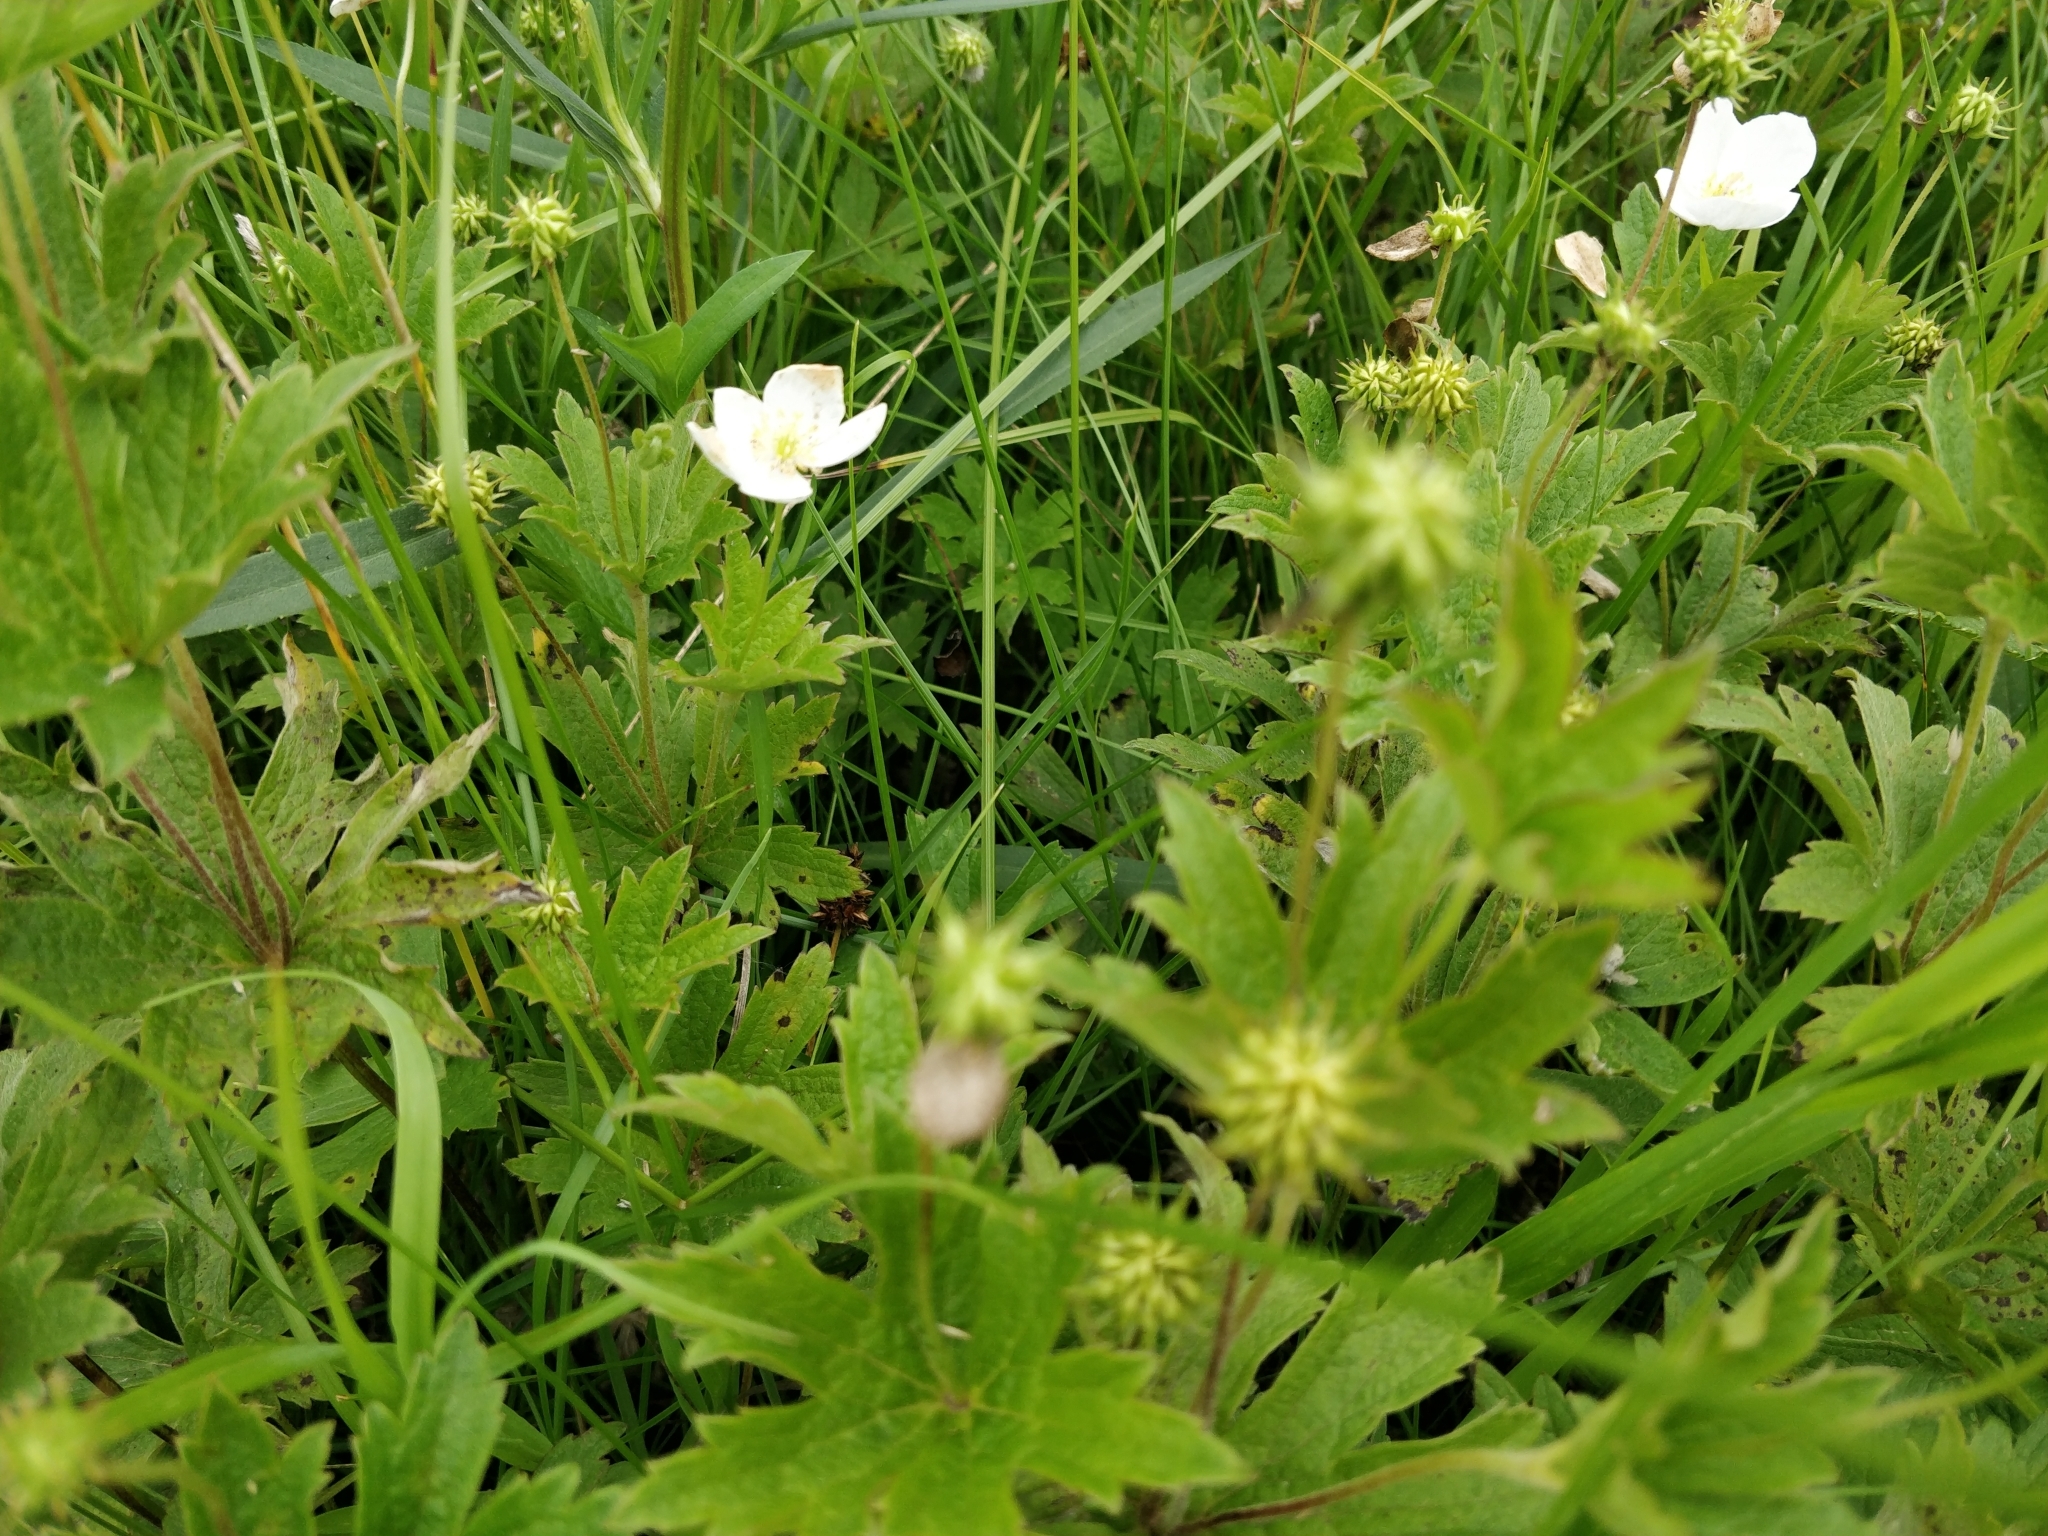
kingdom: Plantae
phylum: Tracheophyta
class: Magnoliopsida
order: Ranunculales
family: Ranunculaceae
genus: Anemonastrum
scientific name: Anemonastrum canadense
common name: Canada anemone
